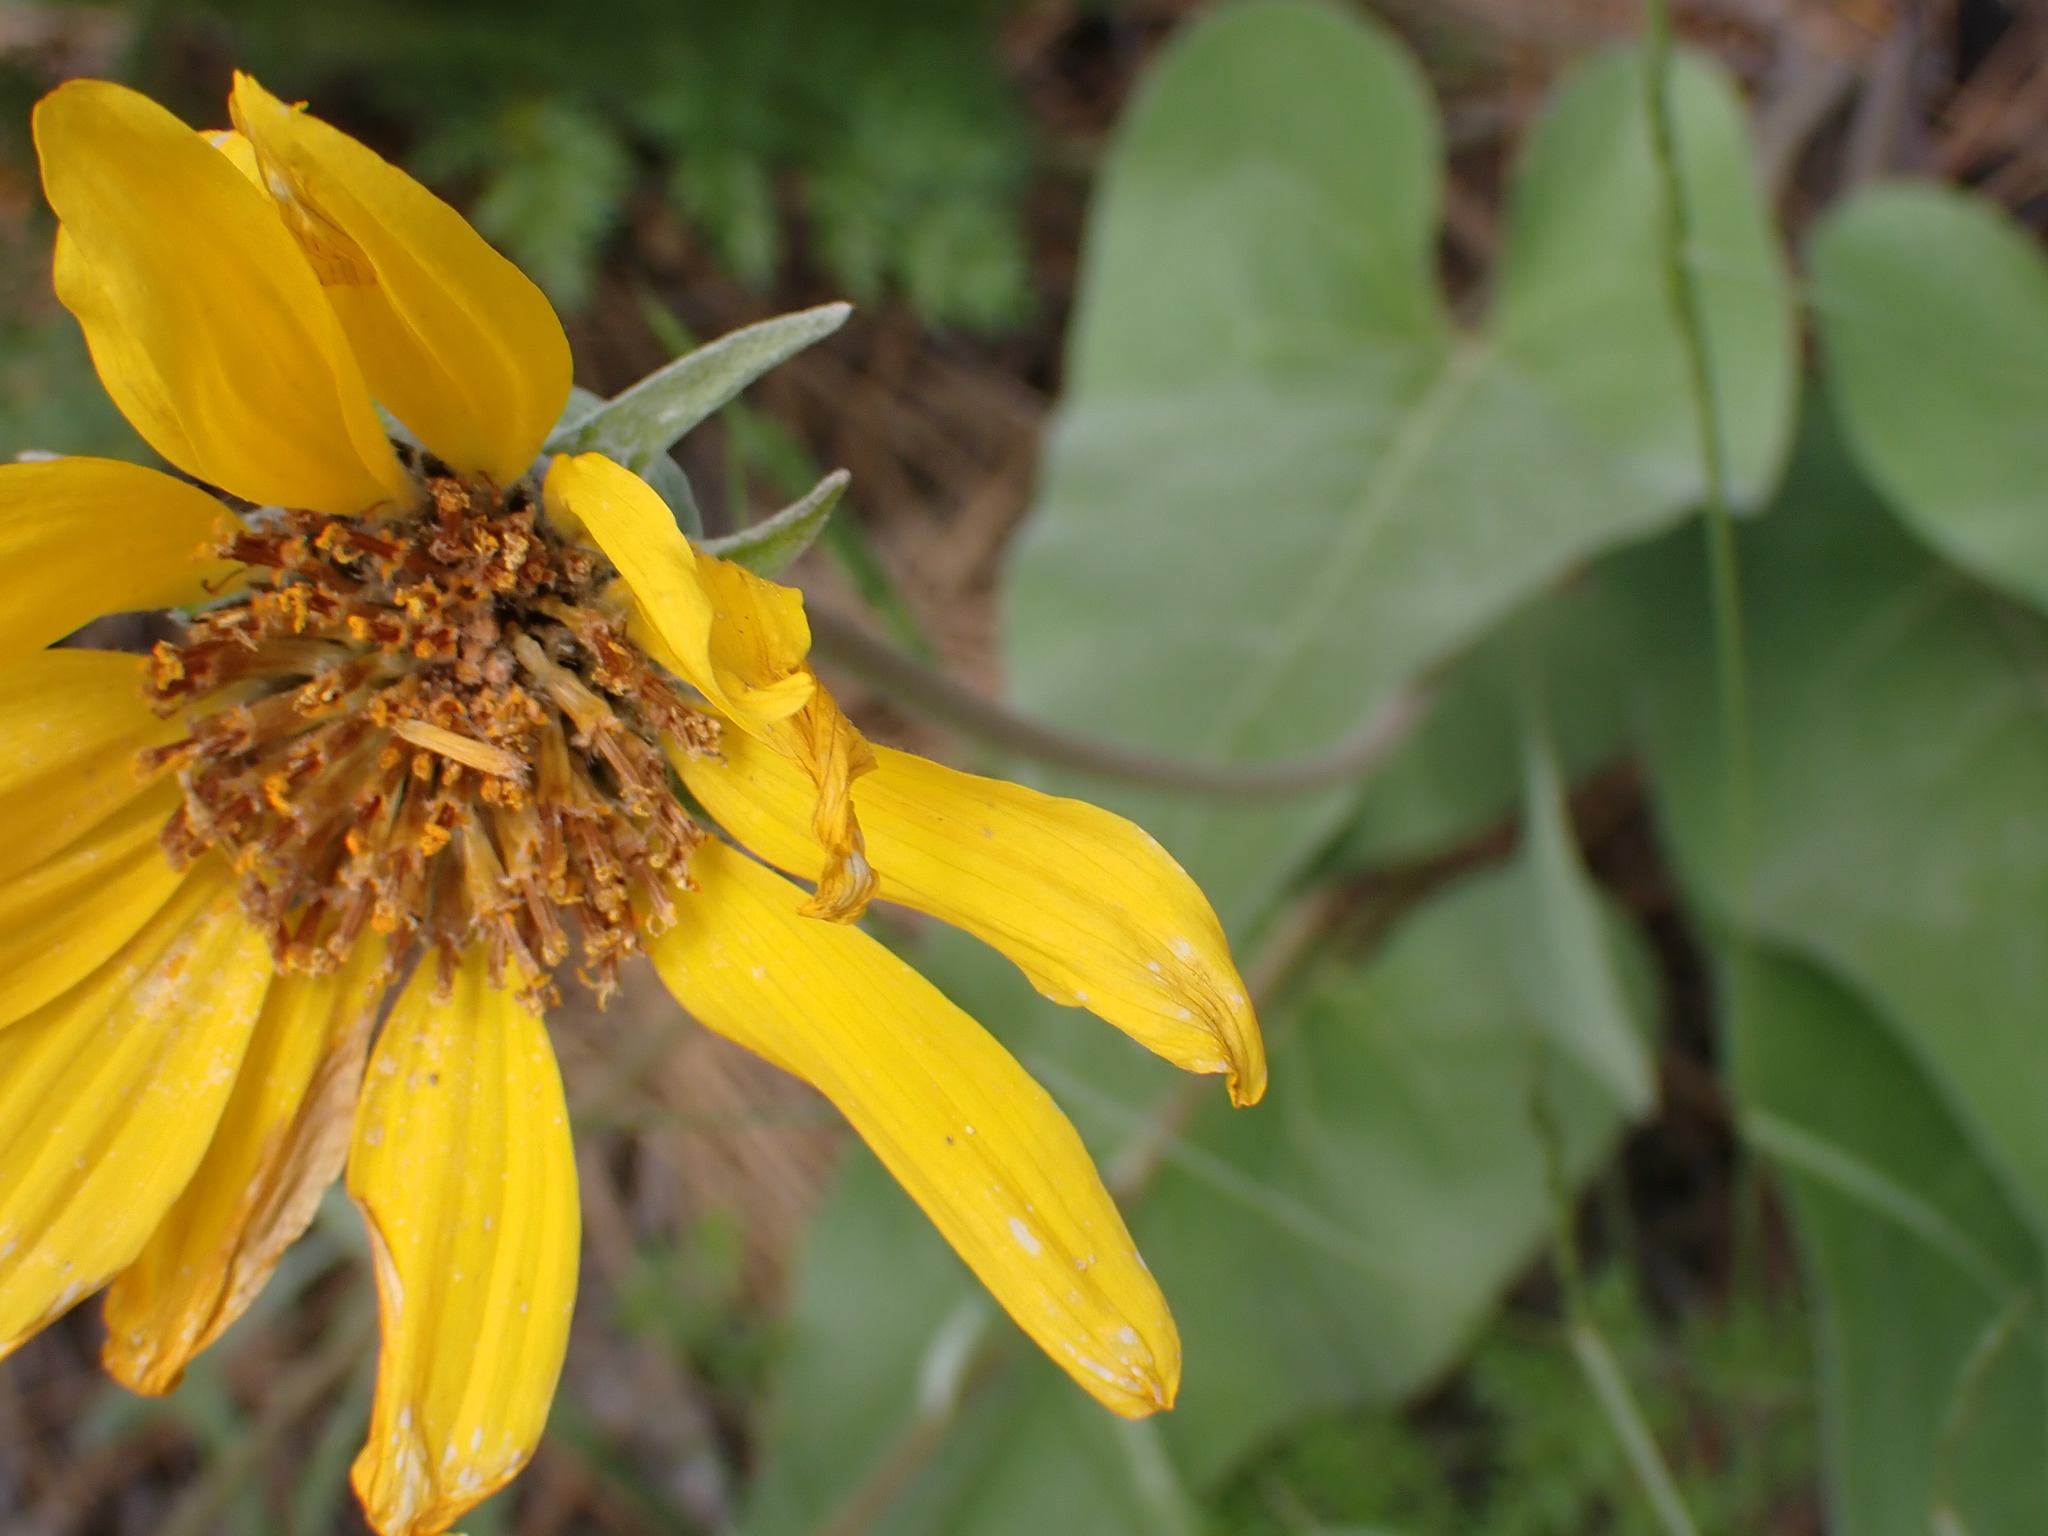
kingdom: Plantae
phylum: Tracheophyta
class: Magnoliopsida
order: Asterales
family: Asteraceae
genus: Wyethia
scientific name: Wyethia sagittata
